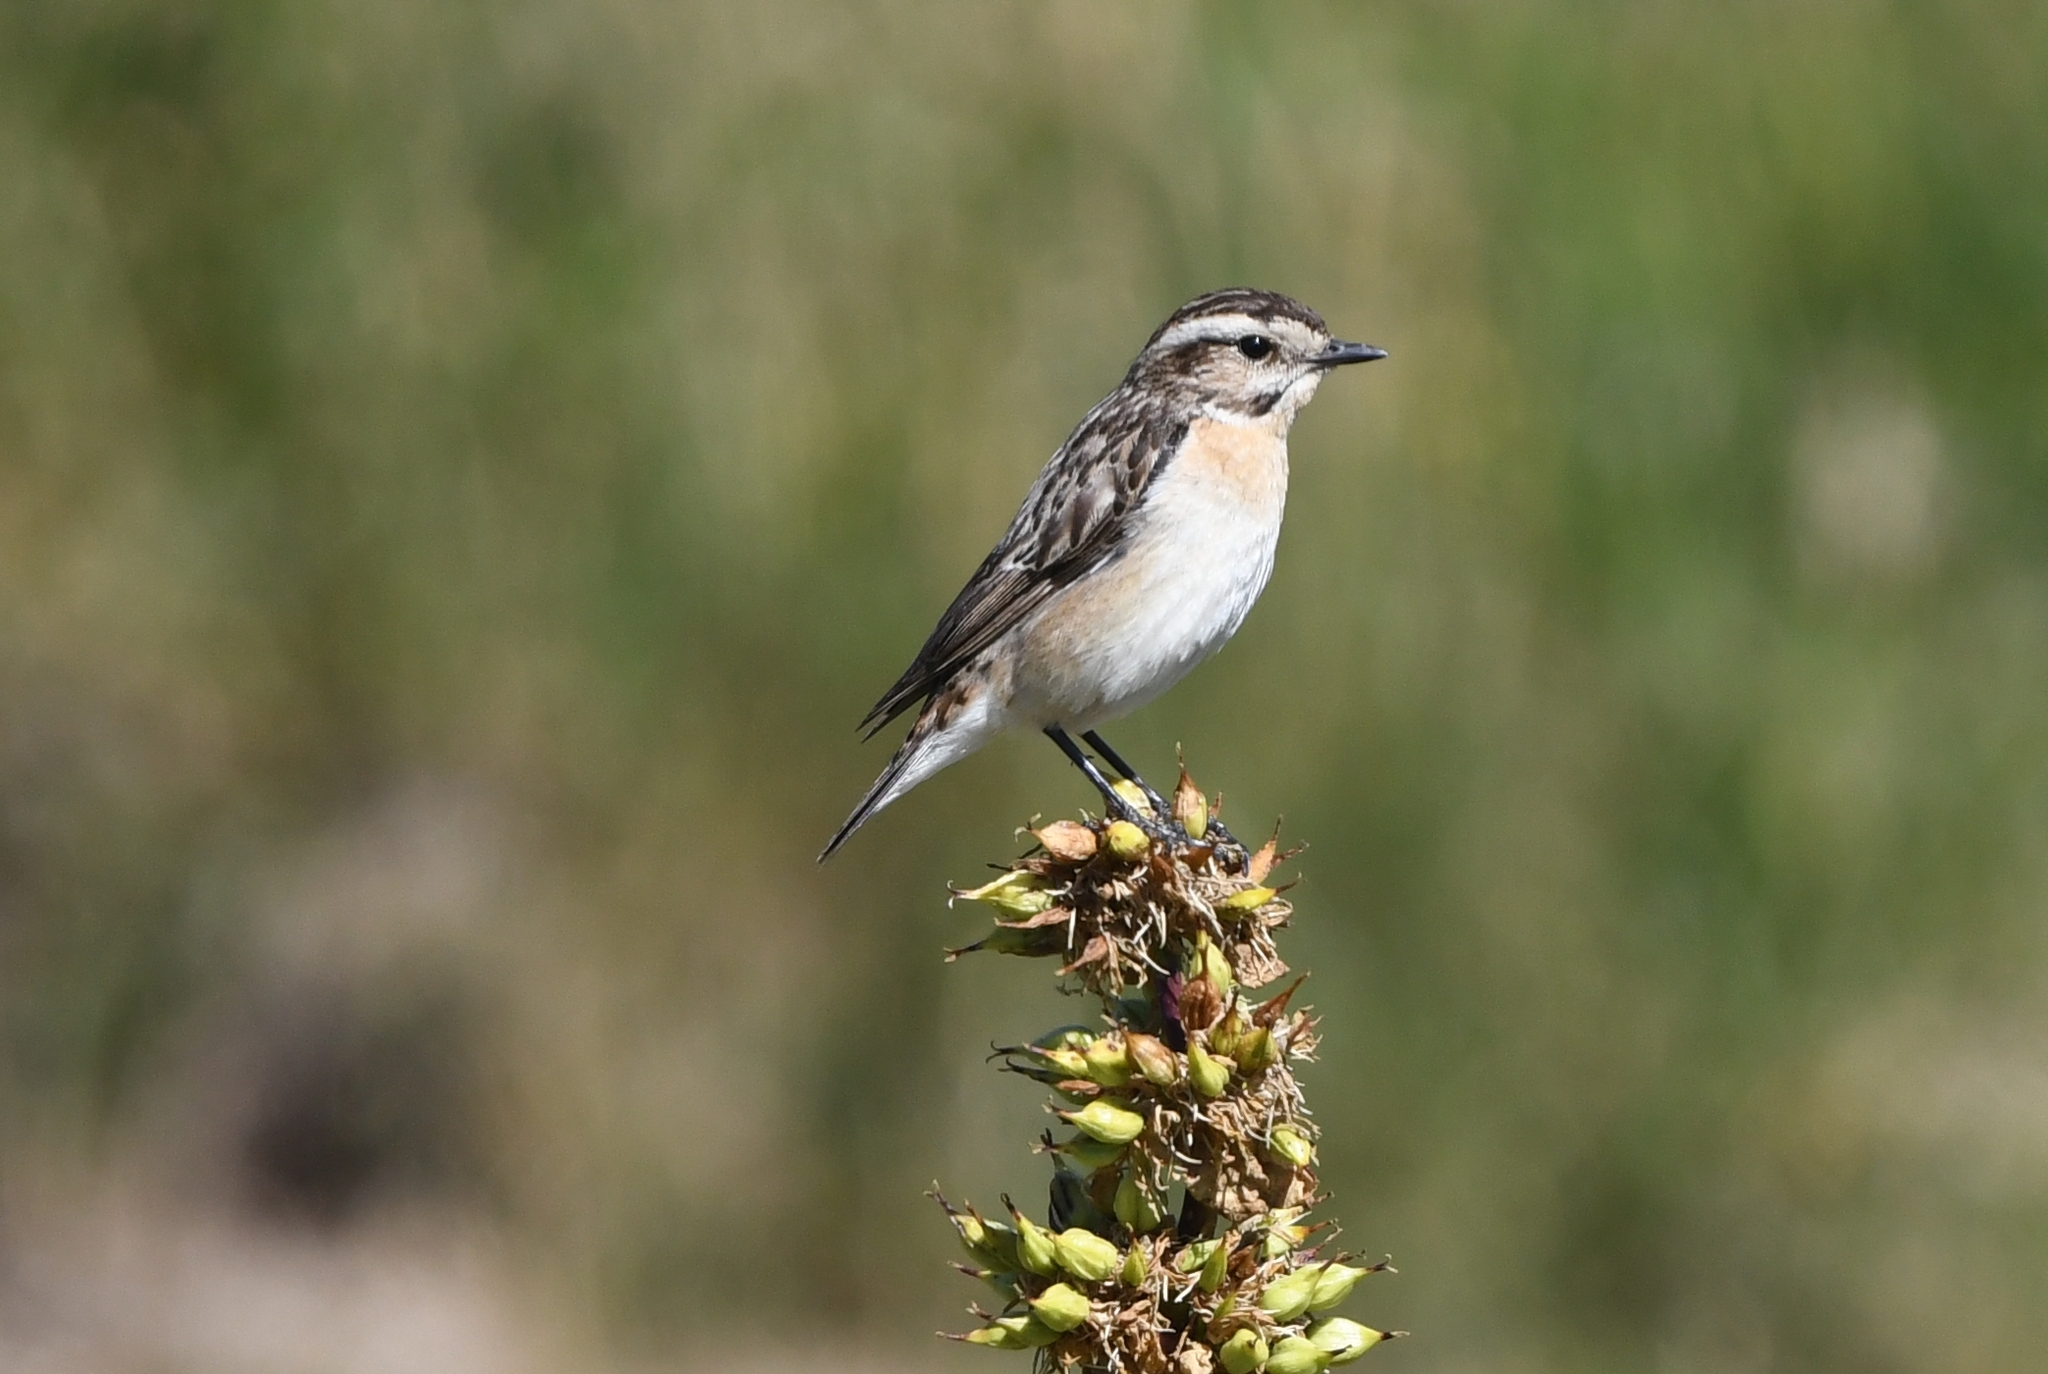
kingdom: Animalia
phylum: Chordata
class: Aves
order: Passeriformes
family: Muscicapidae
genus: Saxicola
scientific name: Saxicola rubetra
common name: Whinchat
